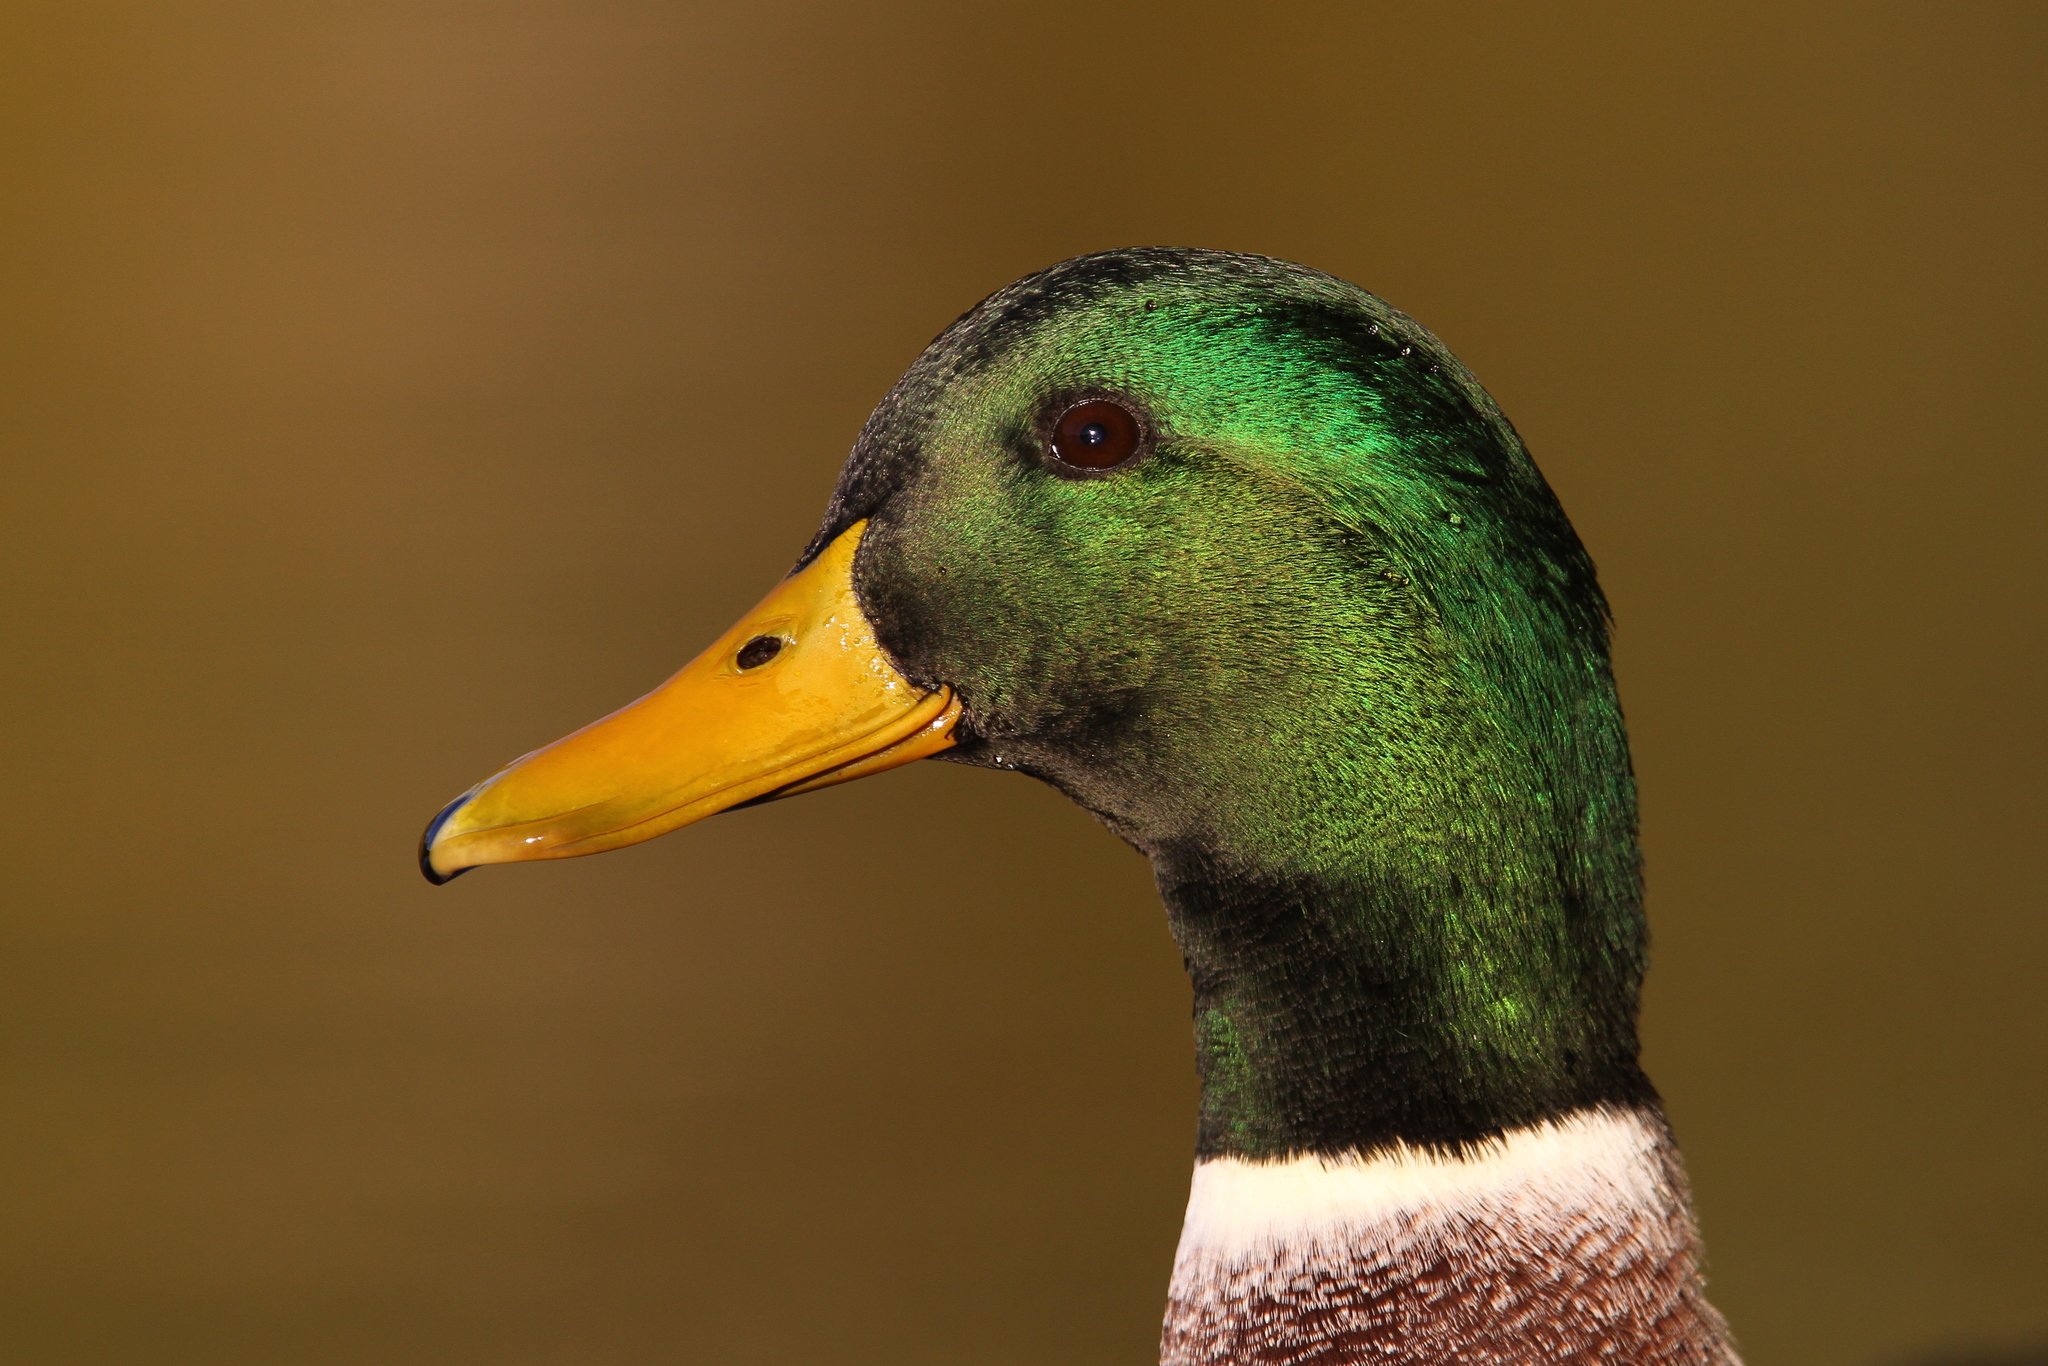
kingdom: Animalia
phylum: Chordata
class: Aves
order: Anseriformes
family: Anatidae
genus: Anas
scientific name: Anas platyrhynchos
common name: Mallard
